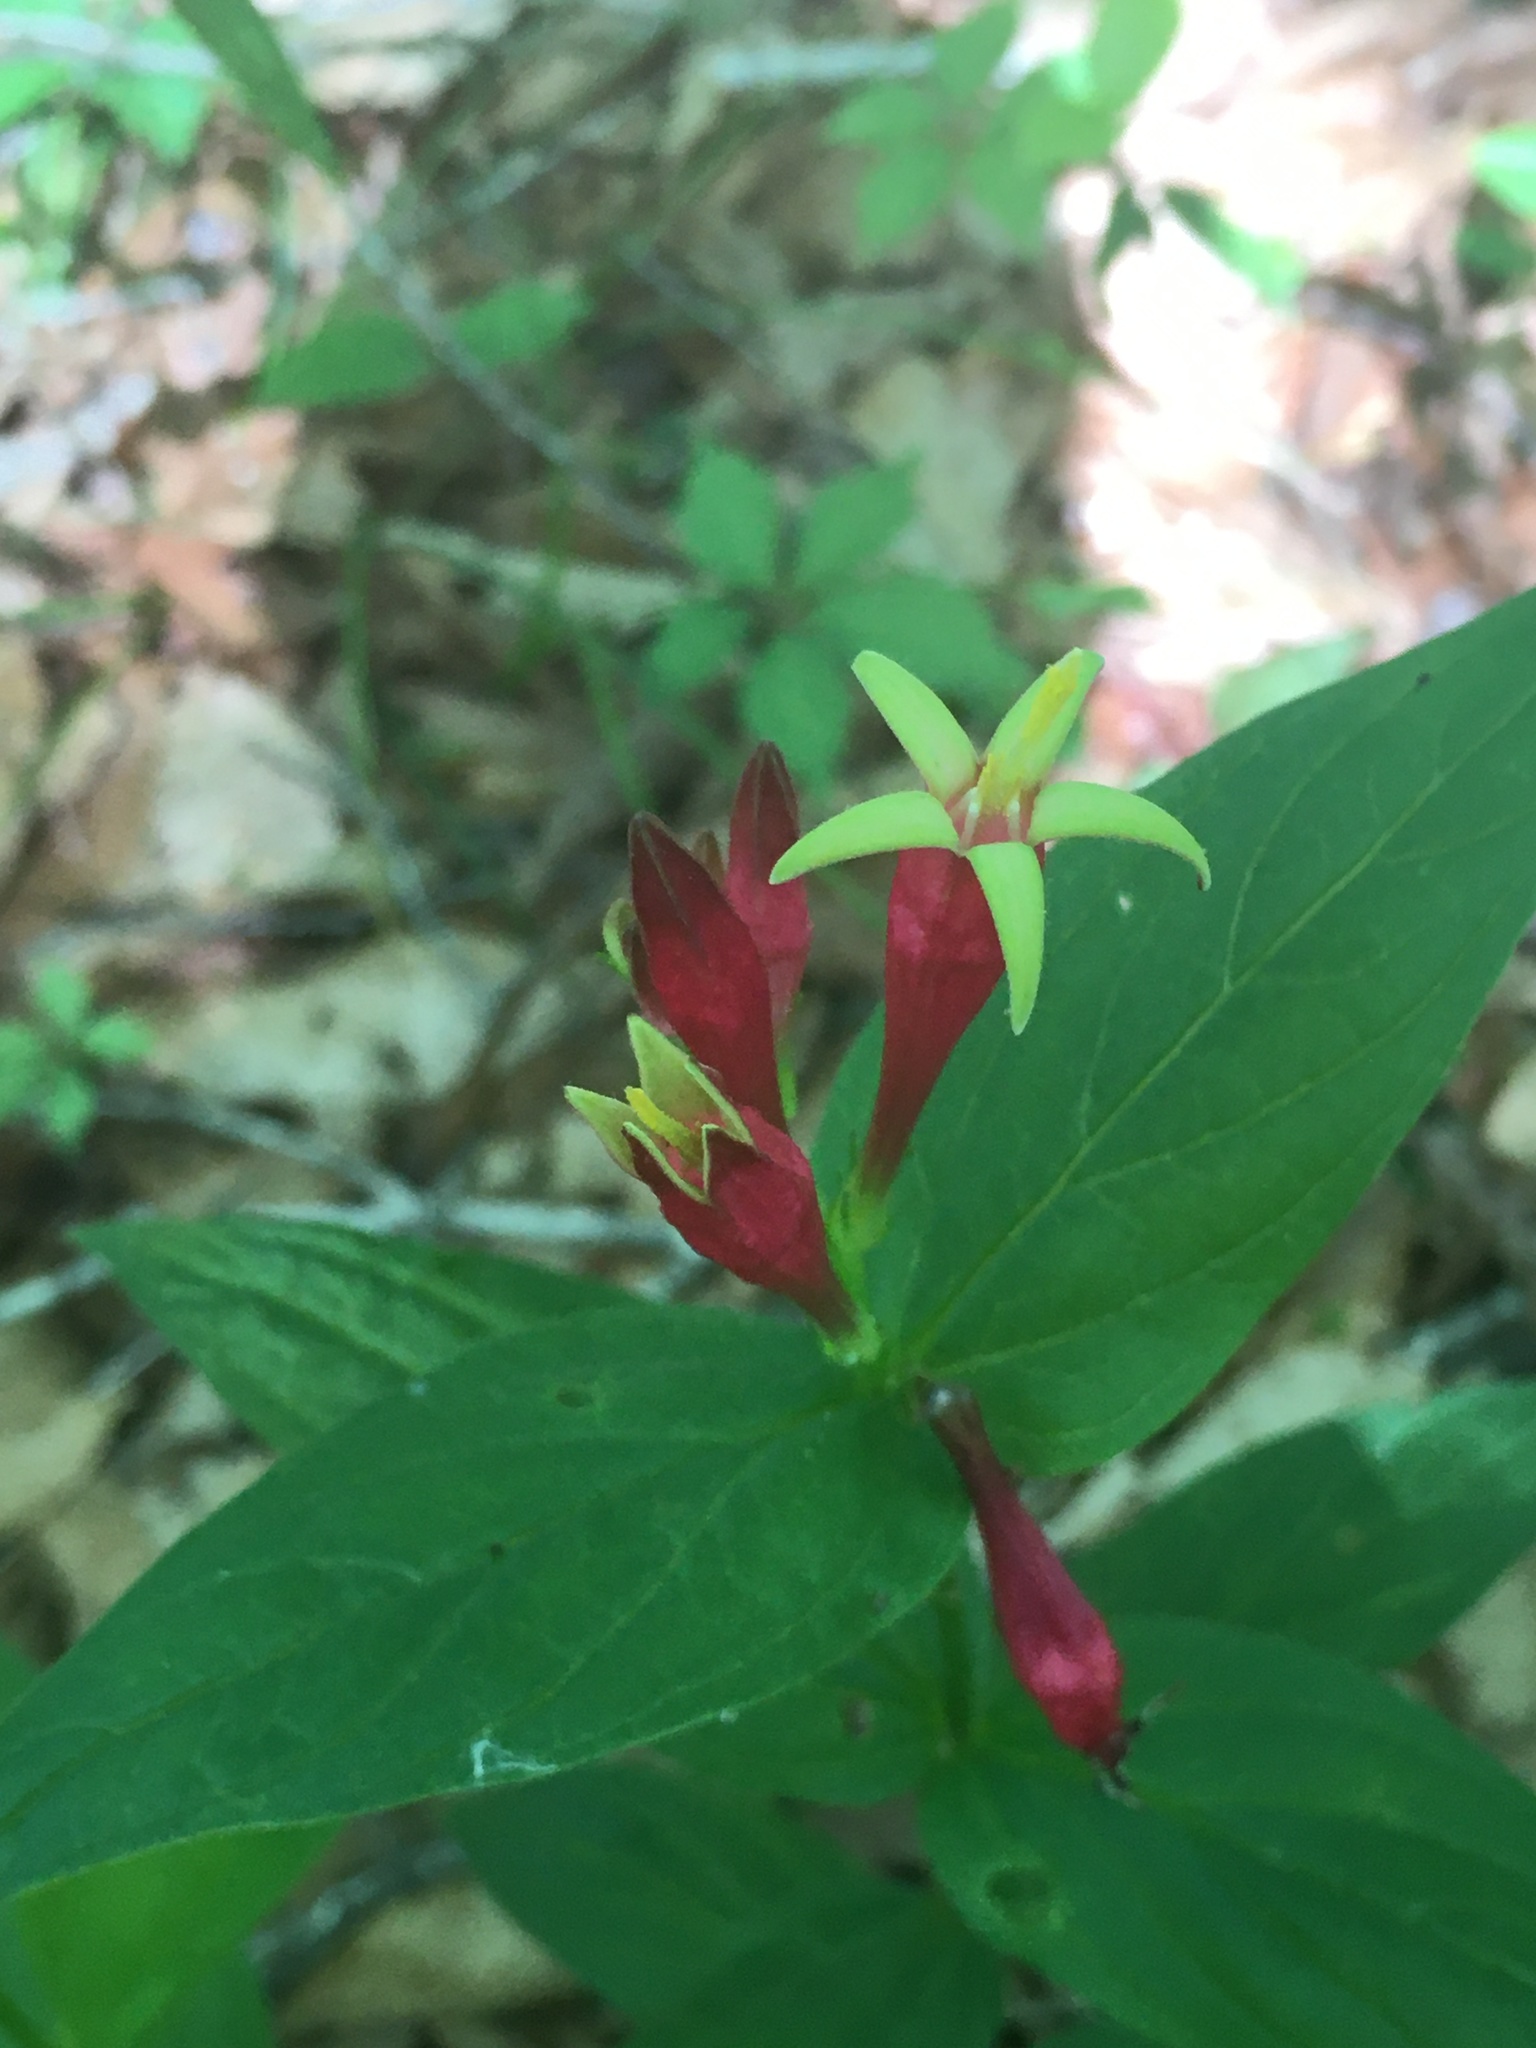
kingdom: Plantae
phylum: Tracheophyta
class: Magnoliopsida
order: Gentianales
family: Loganiaceae
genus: Spigelia
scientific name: Spigelia marilandica
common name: Indian-pink
